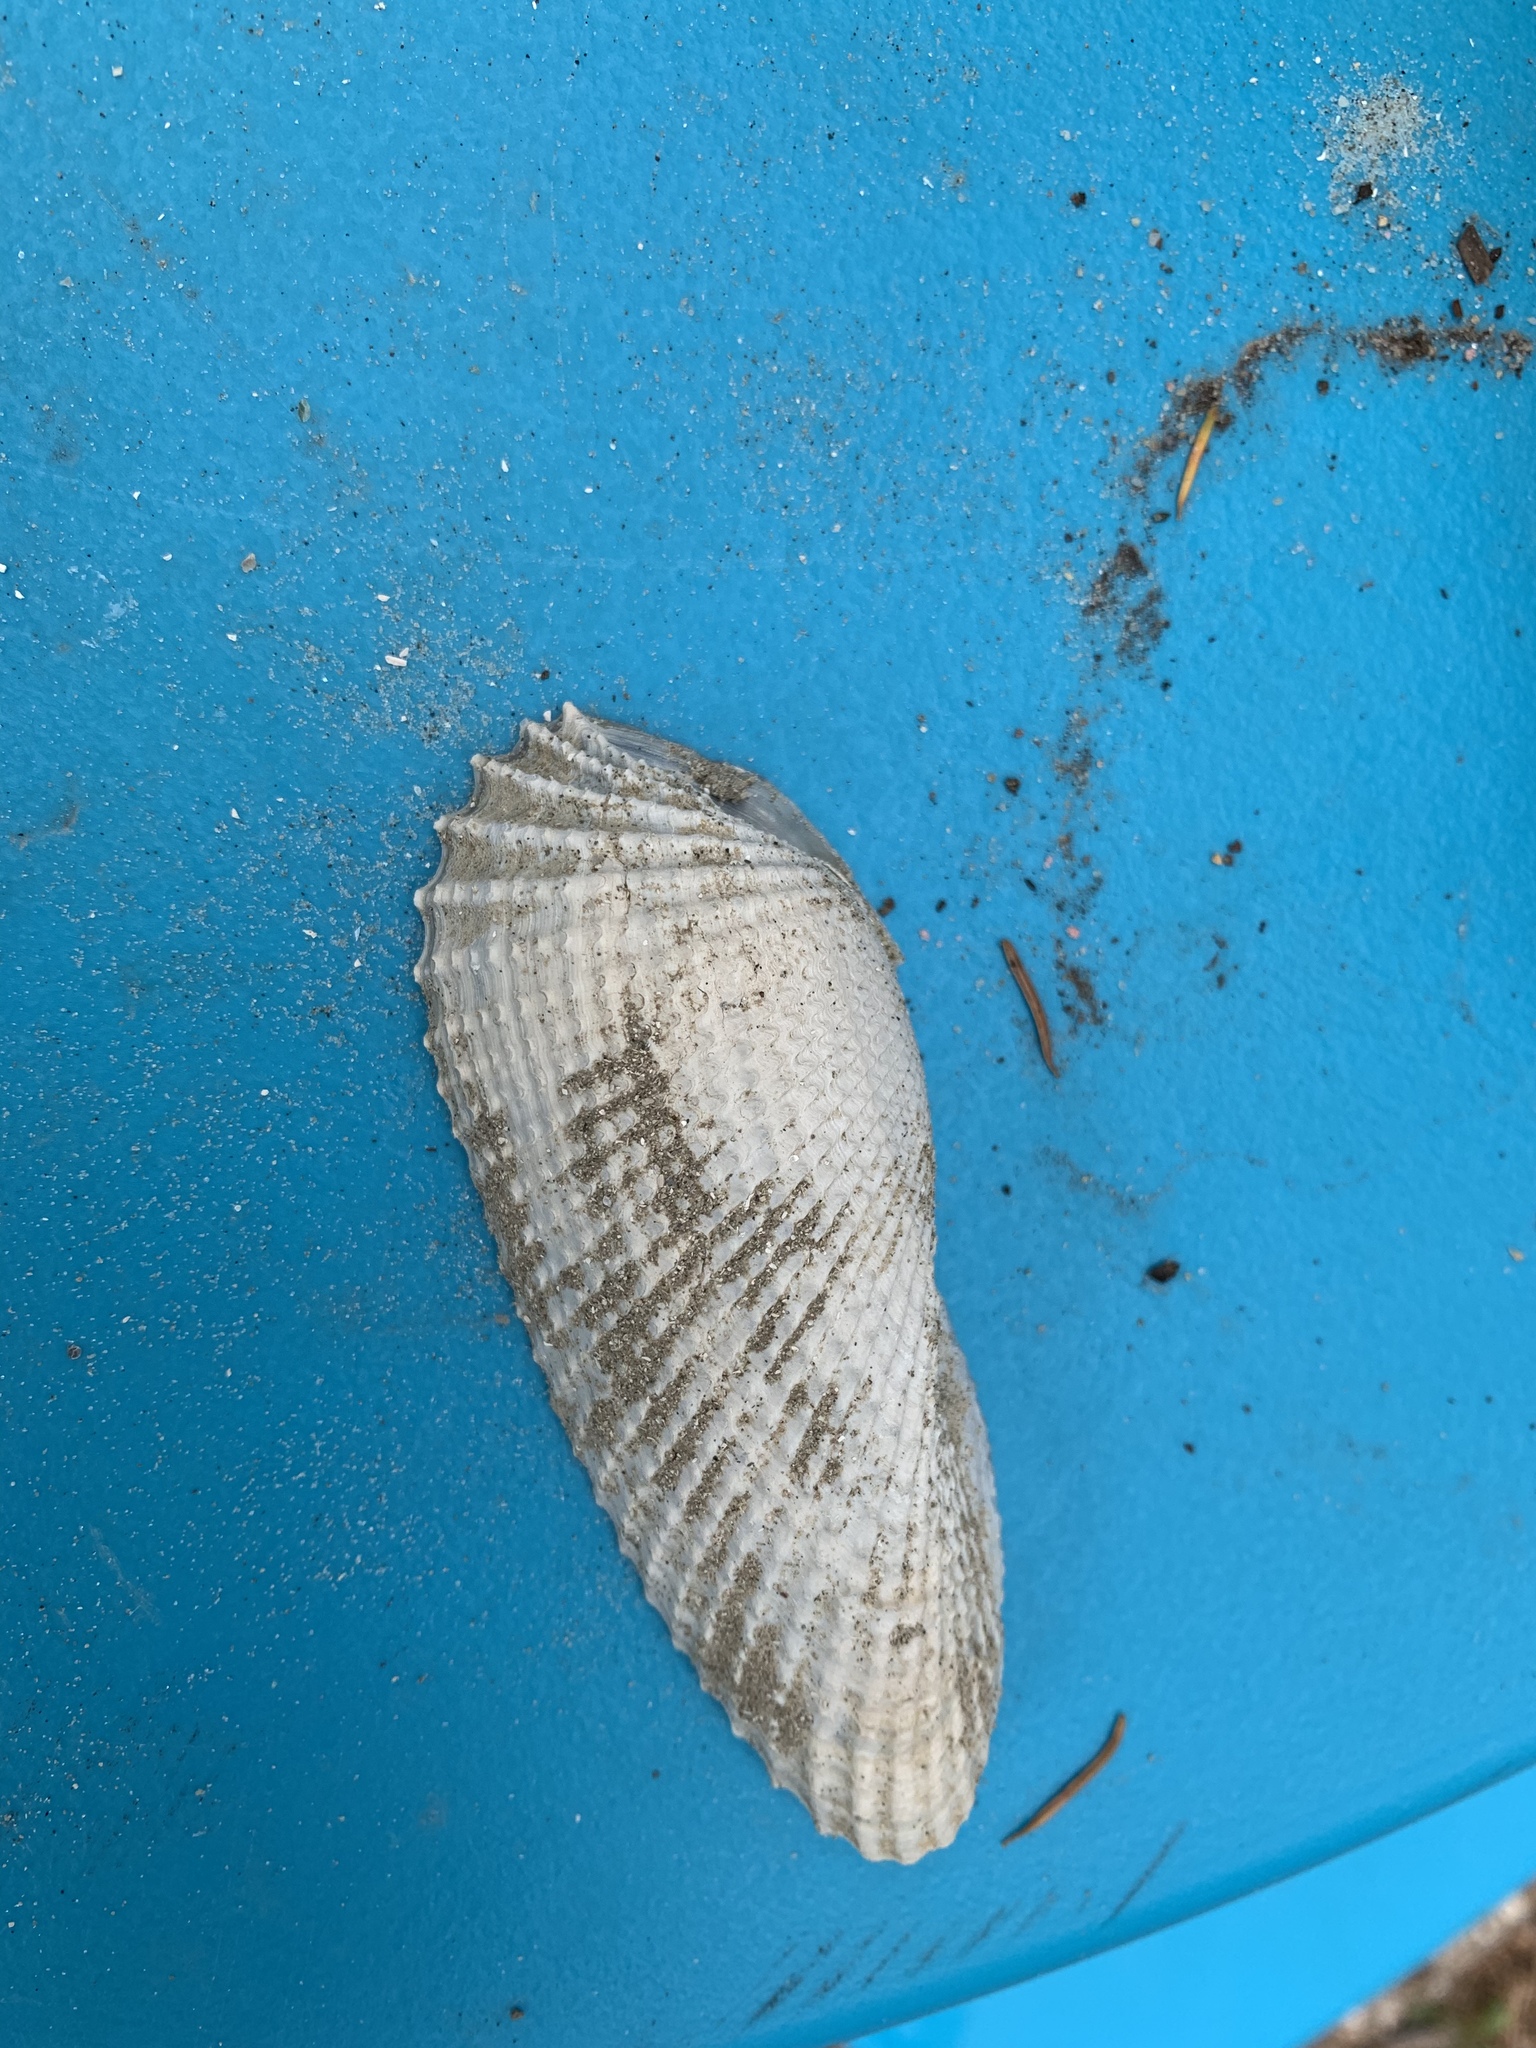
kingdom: Animalia
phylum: Mollusca
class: Bivalvia
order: Myida
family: Pholadidae
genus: Cyrtopleura
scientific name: Cyrtopleura costata
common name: Angel wing
